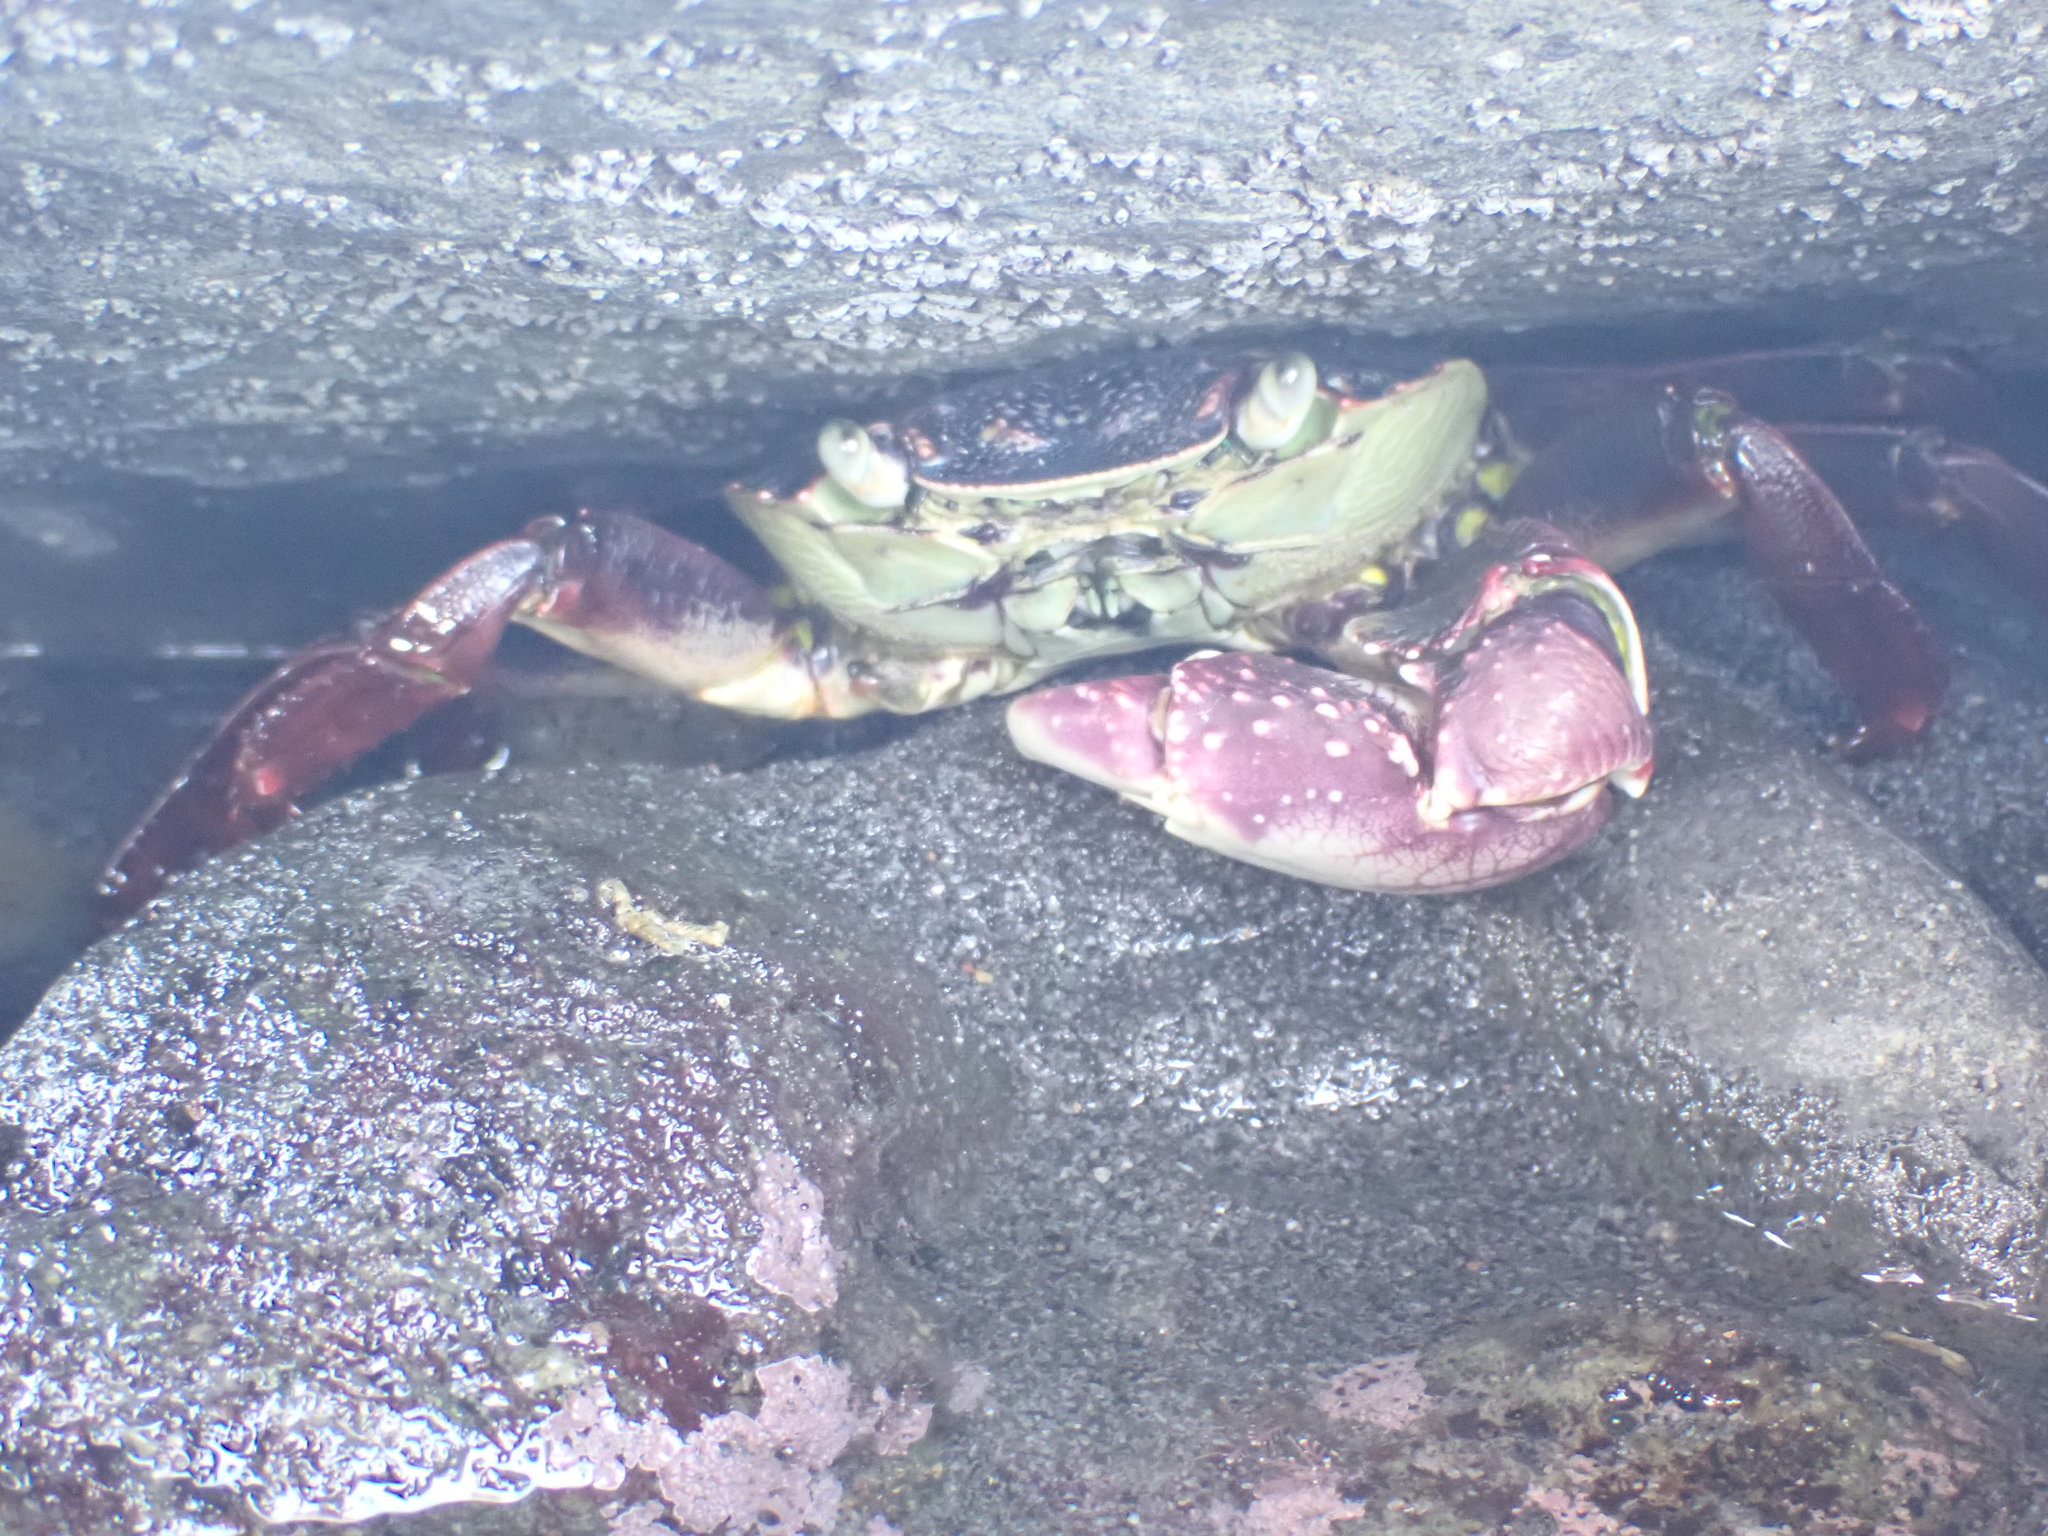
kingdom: Animalia
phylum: Arthropoda
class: Malacostraca
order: Decapoda
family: Grapsidae
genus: Leptograpsus
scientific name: Leptograpsus variegatus
